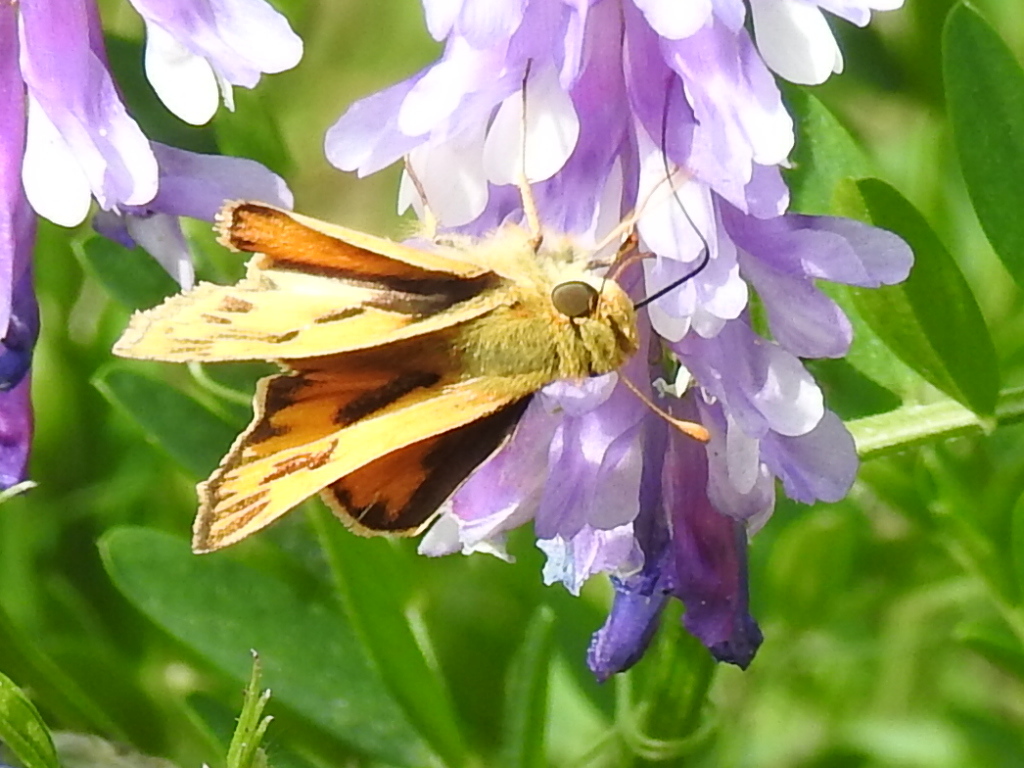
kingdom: Animalia
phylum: Arthropoda
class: Insecta
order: Lepidoptera
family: Hesperiidae
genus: Hylephila
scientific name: Hylephila phyleus
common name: Fiery skipper
